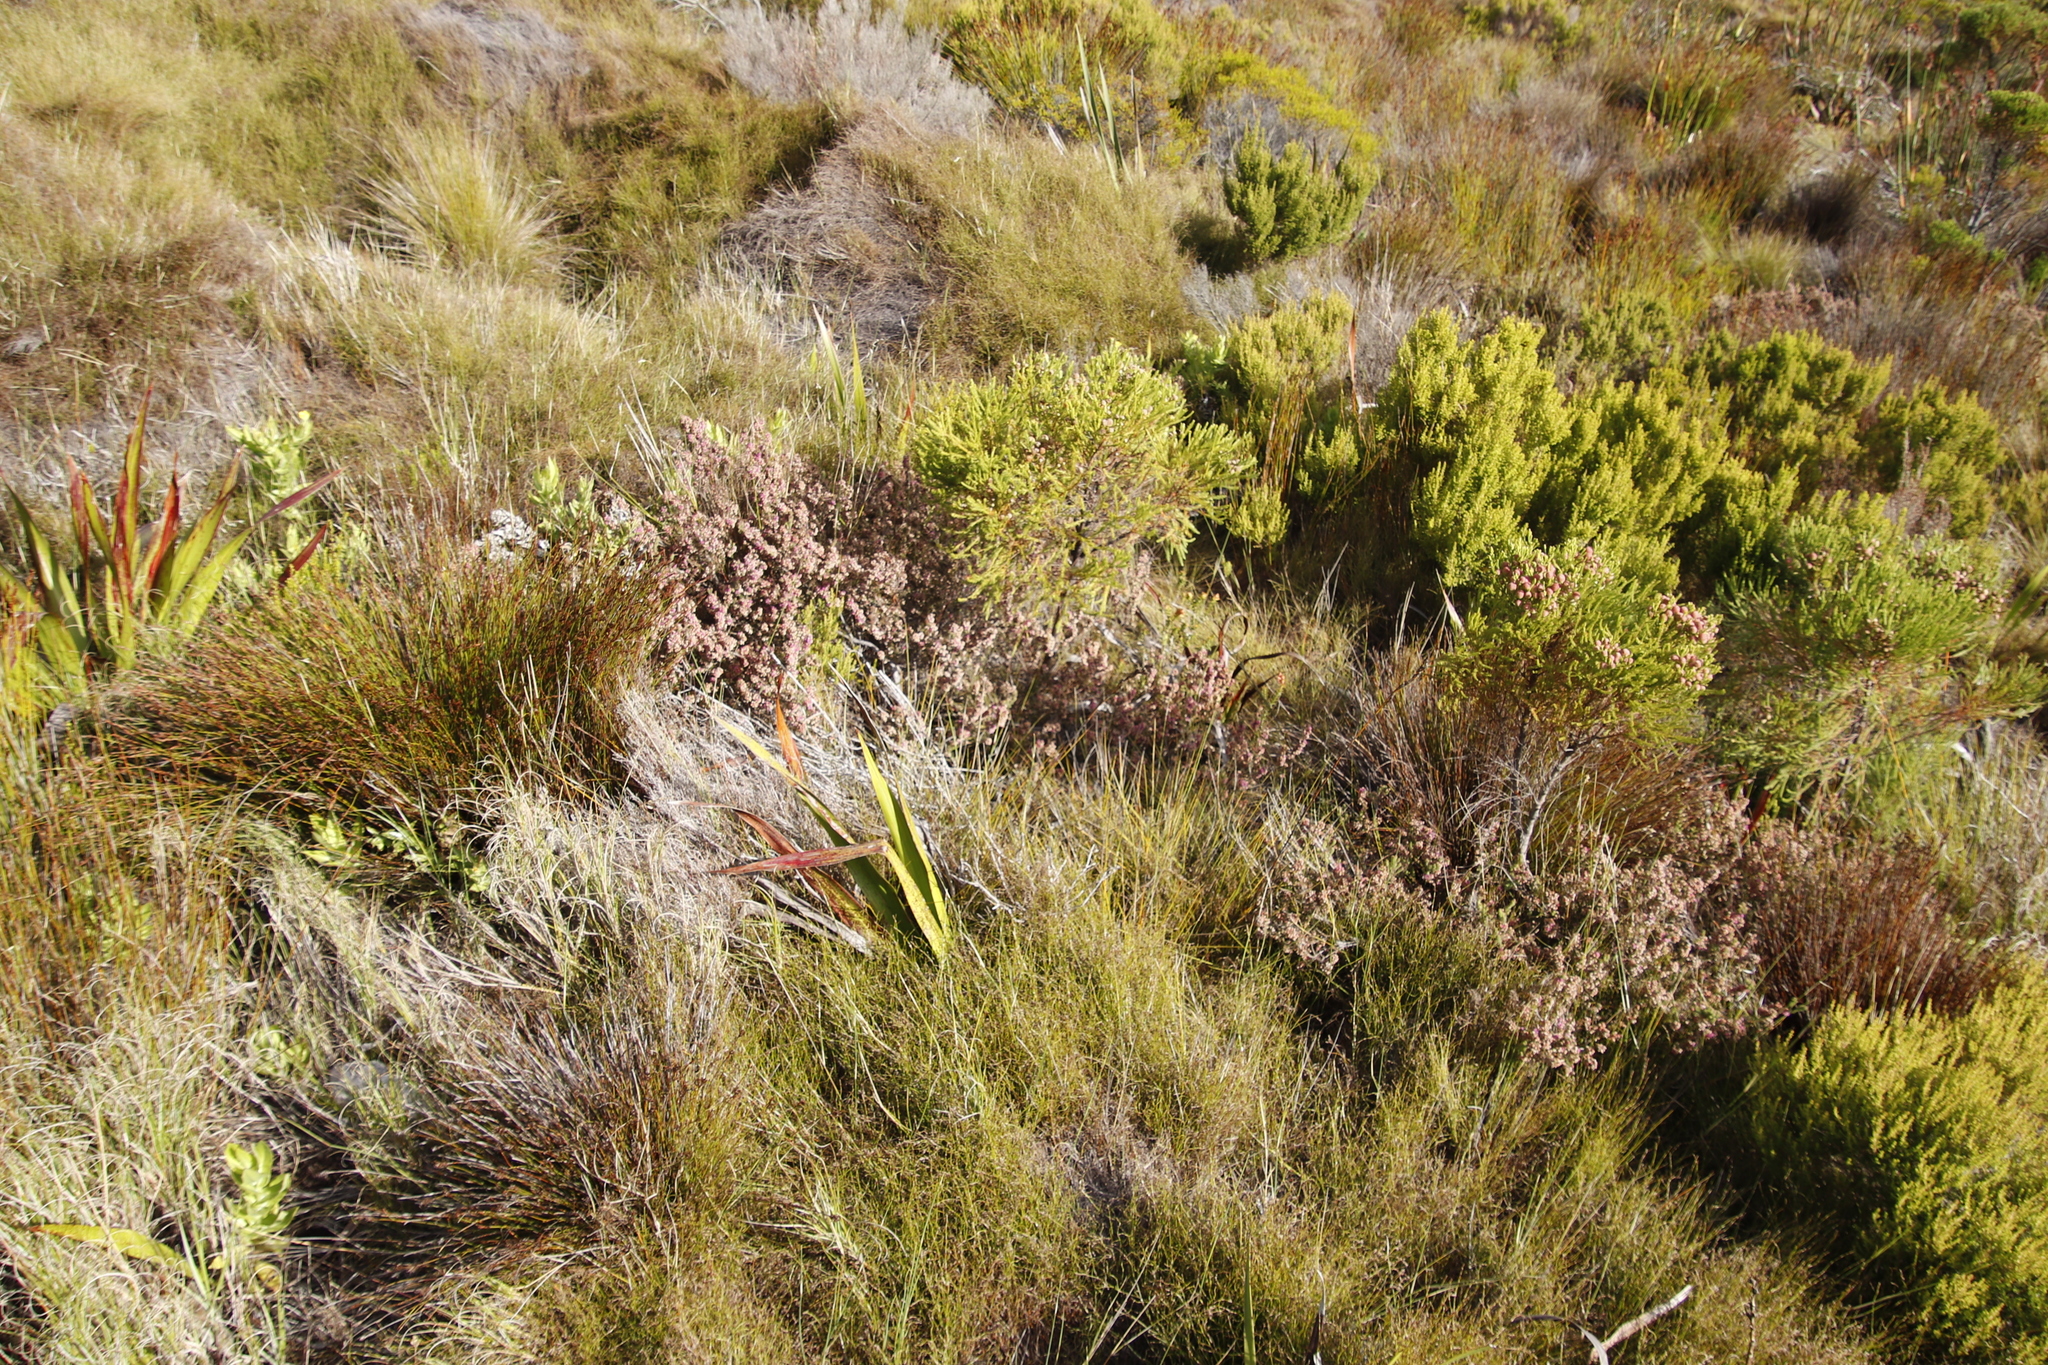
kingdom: Plantae
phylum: Tracheophyta
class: Magnoliopsida
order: Ericales
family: Ericaceae
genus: Erica
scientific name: Erica mollis
